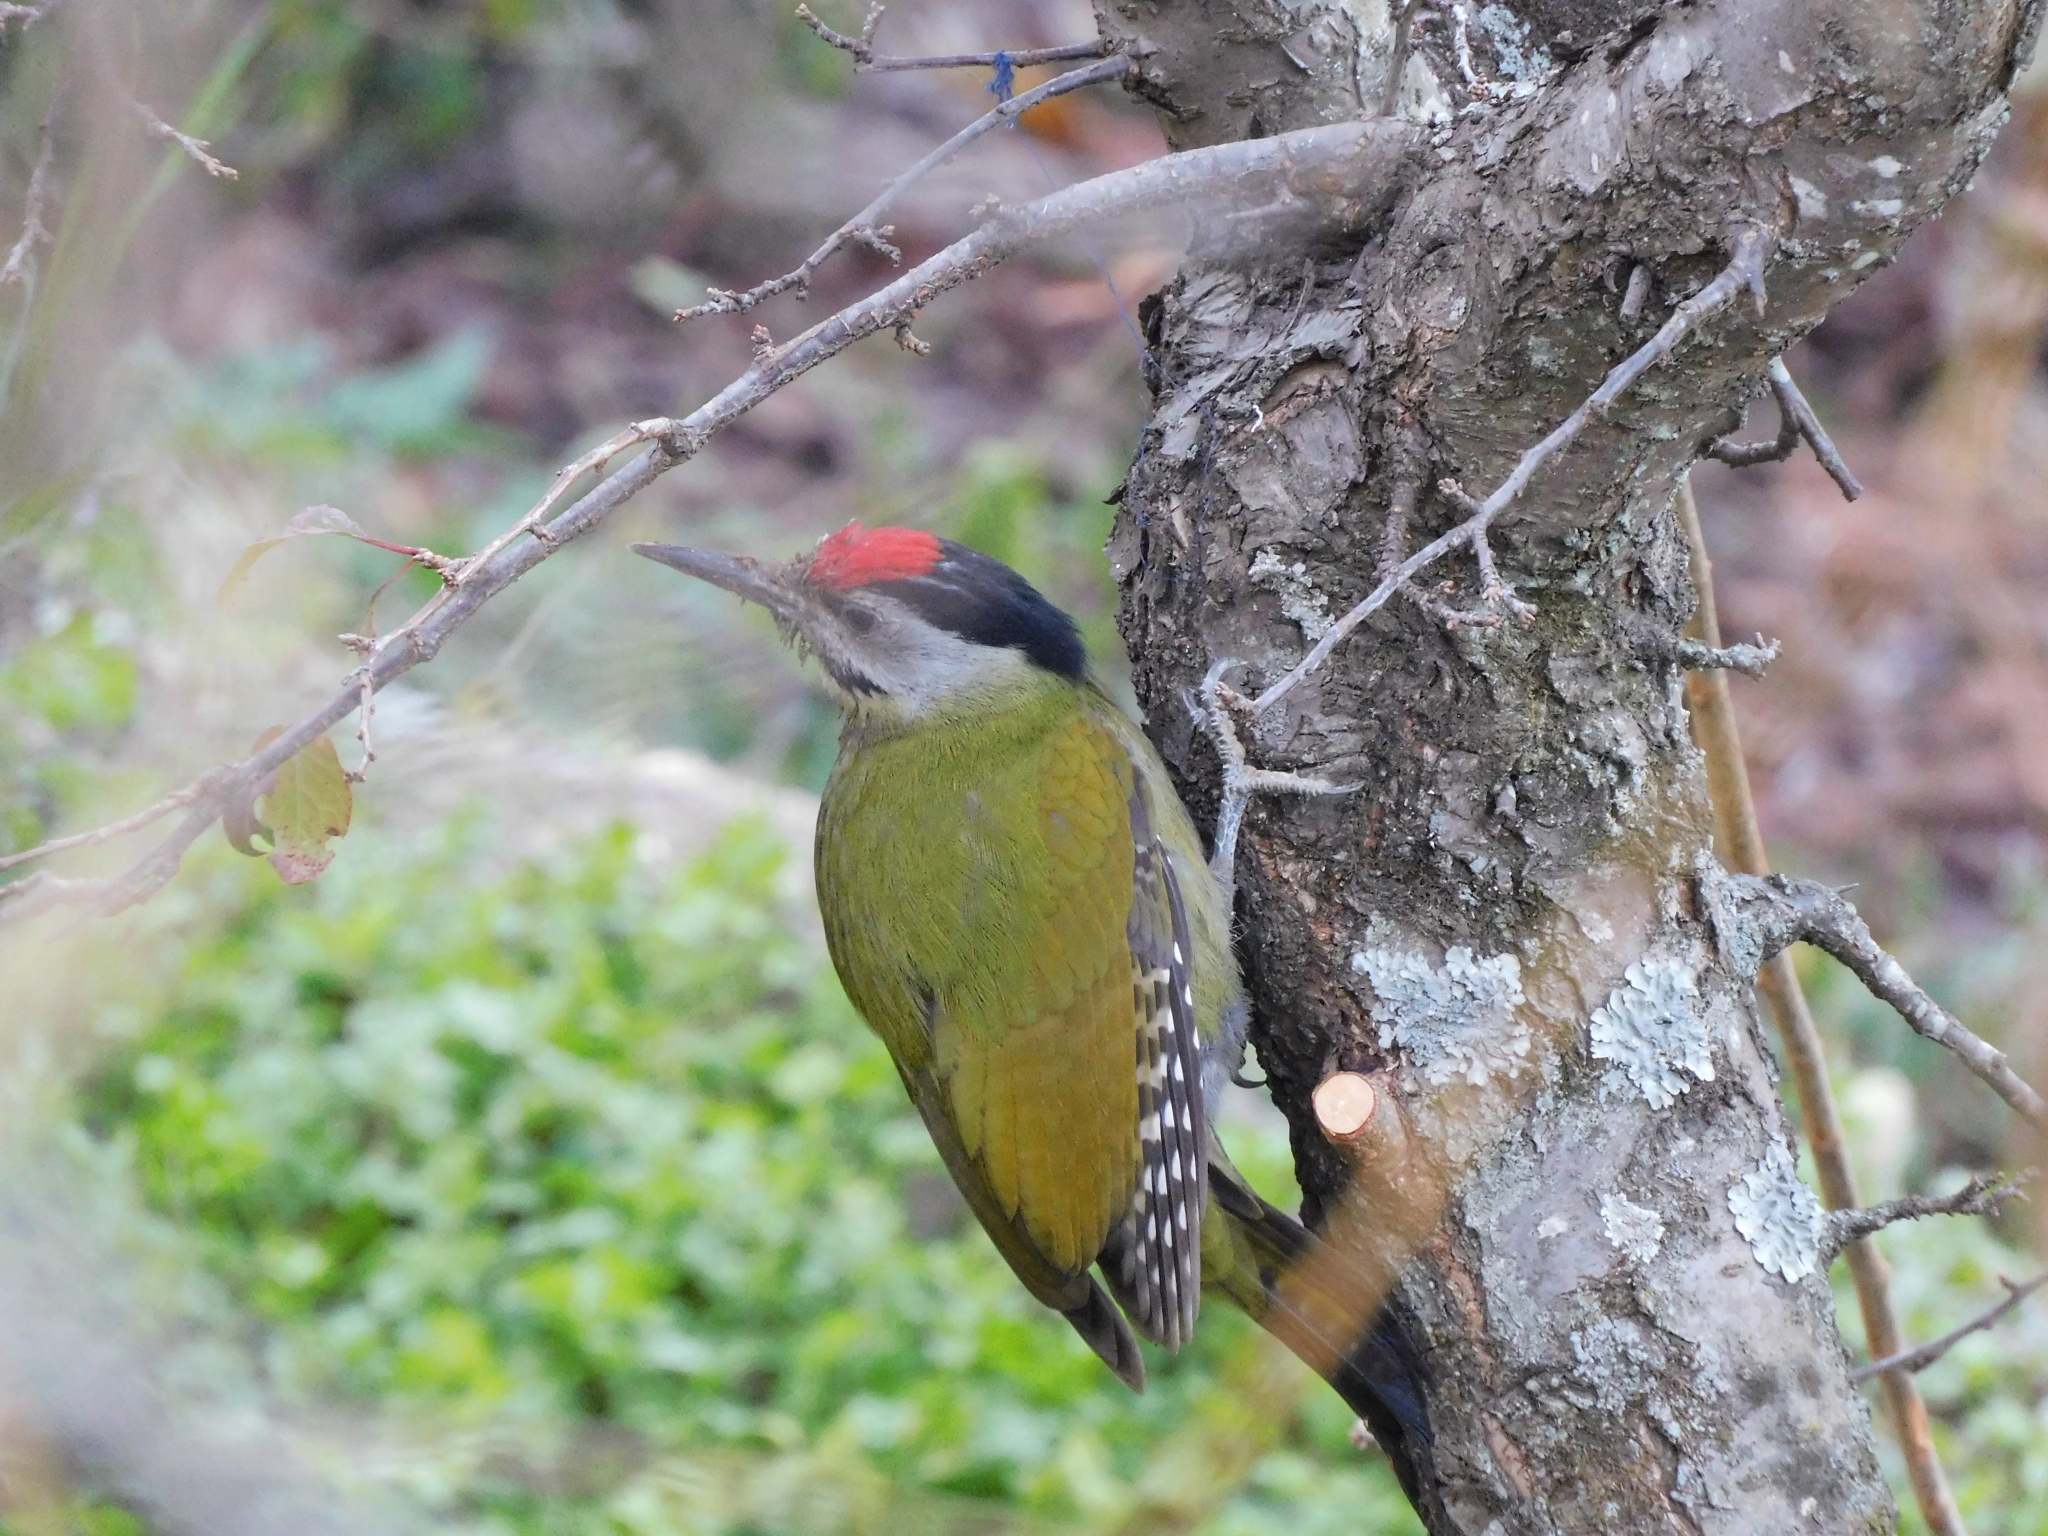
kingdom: Animalia
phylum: Chordata
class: Aves
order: Piciformes
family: Picidae
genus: Picus
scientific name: Picus canus
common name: Grey-headed woodpecker
